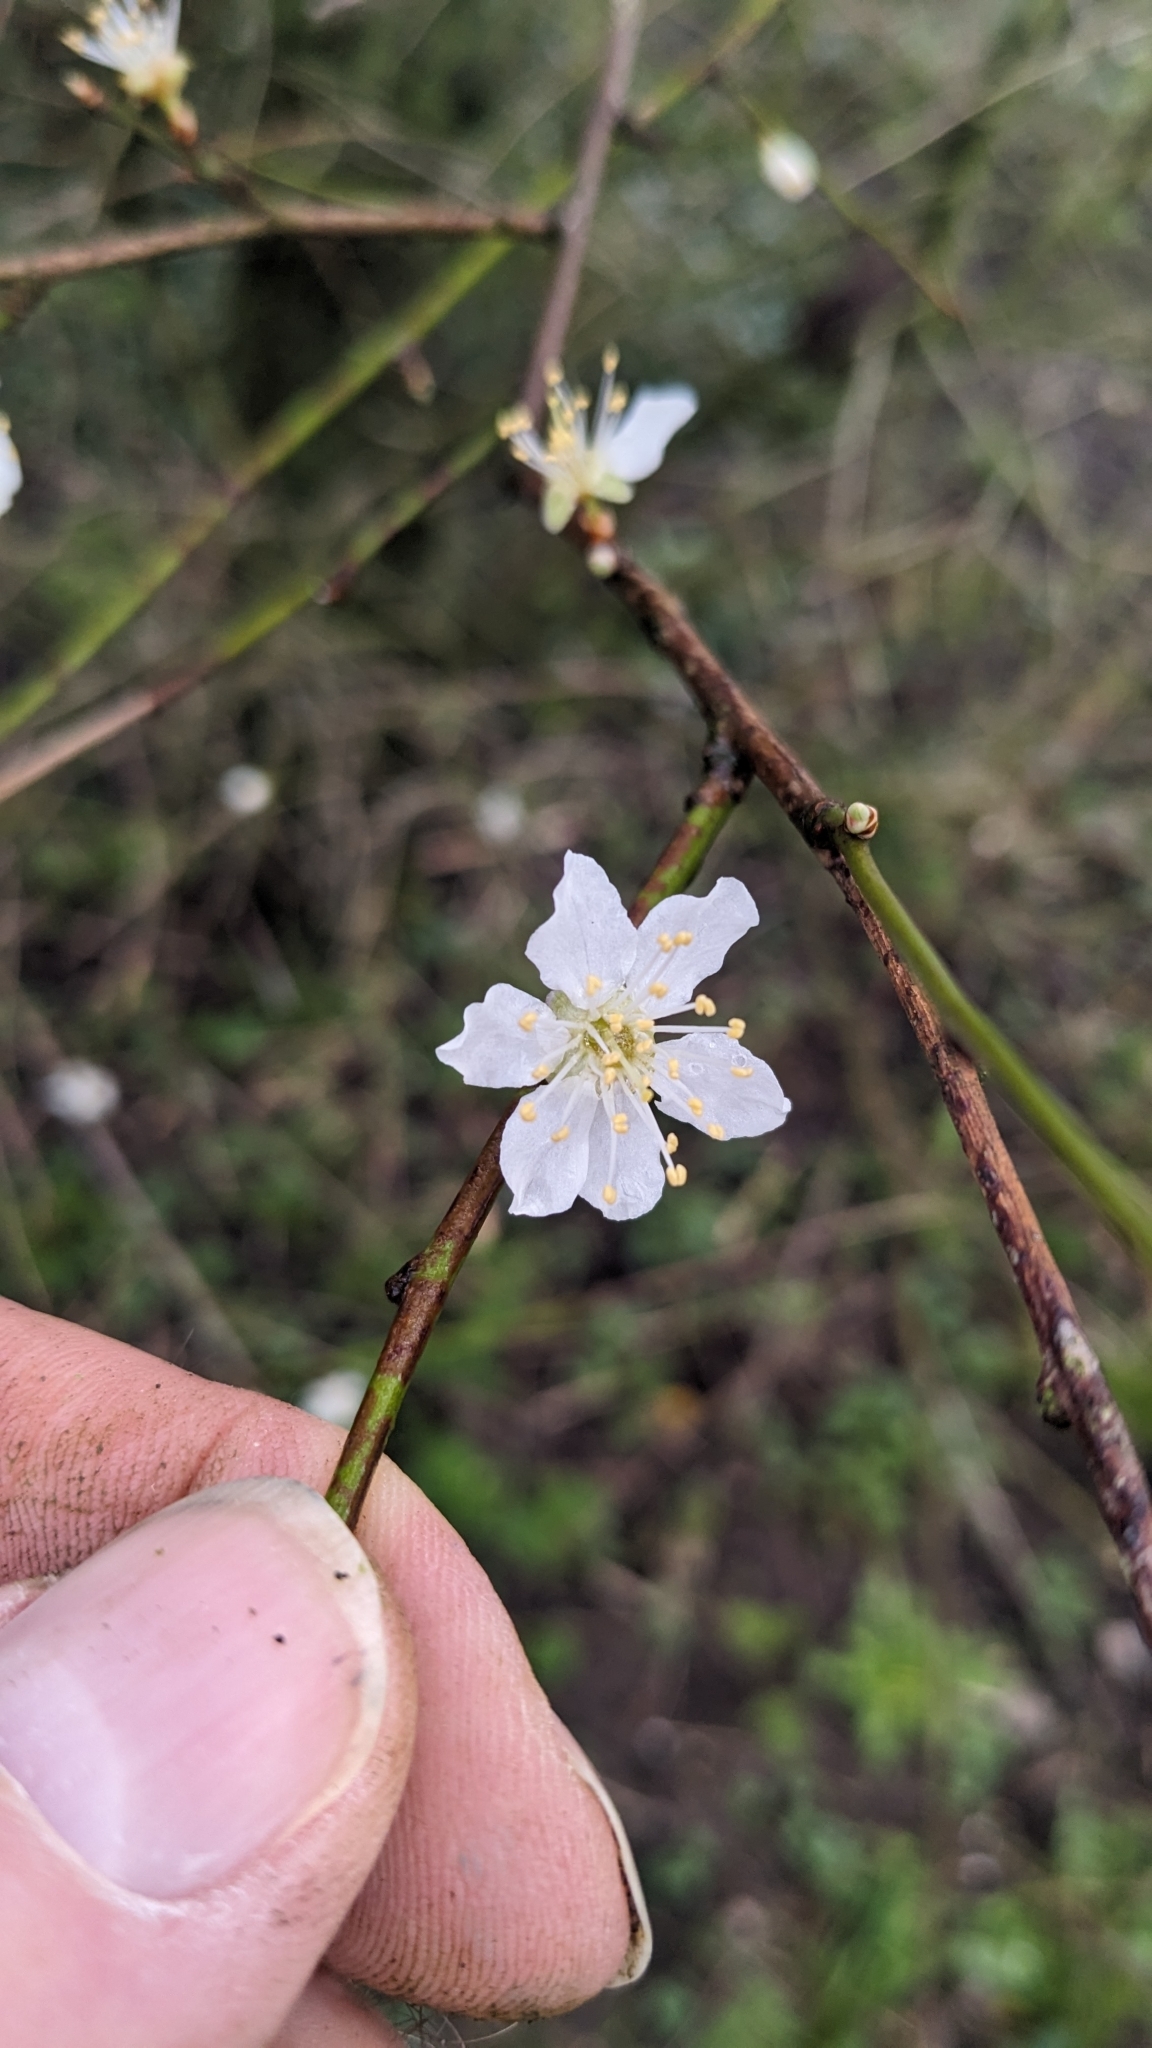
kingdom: Plantae
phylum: Tracheophyta
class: Magnoliopsida
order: Rosales
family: Rosaceae
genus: Prunus
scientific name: Prunus cerasifera
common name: Cherry plum
